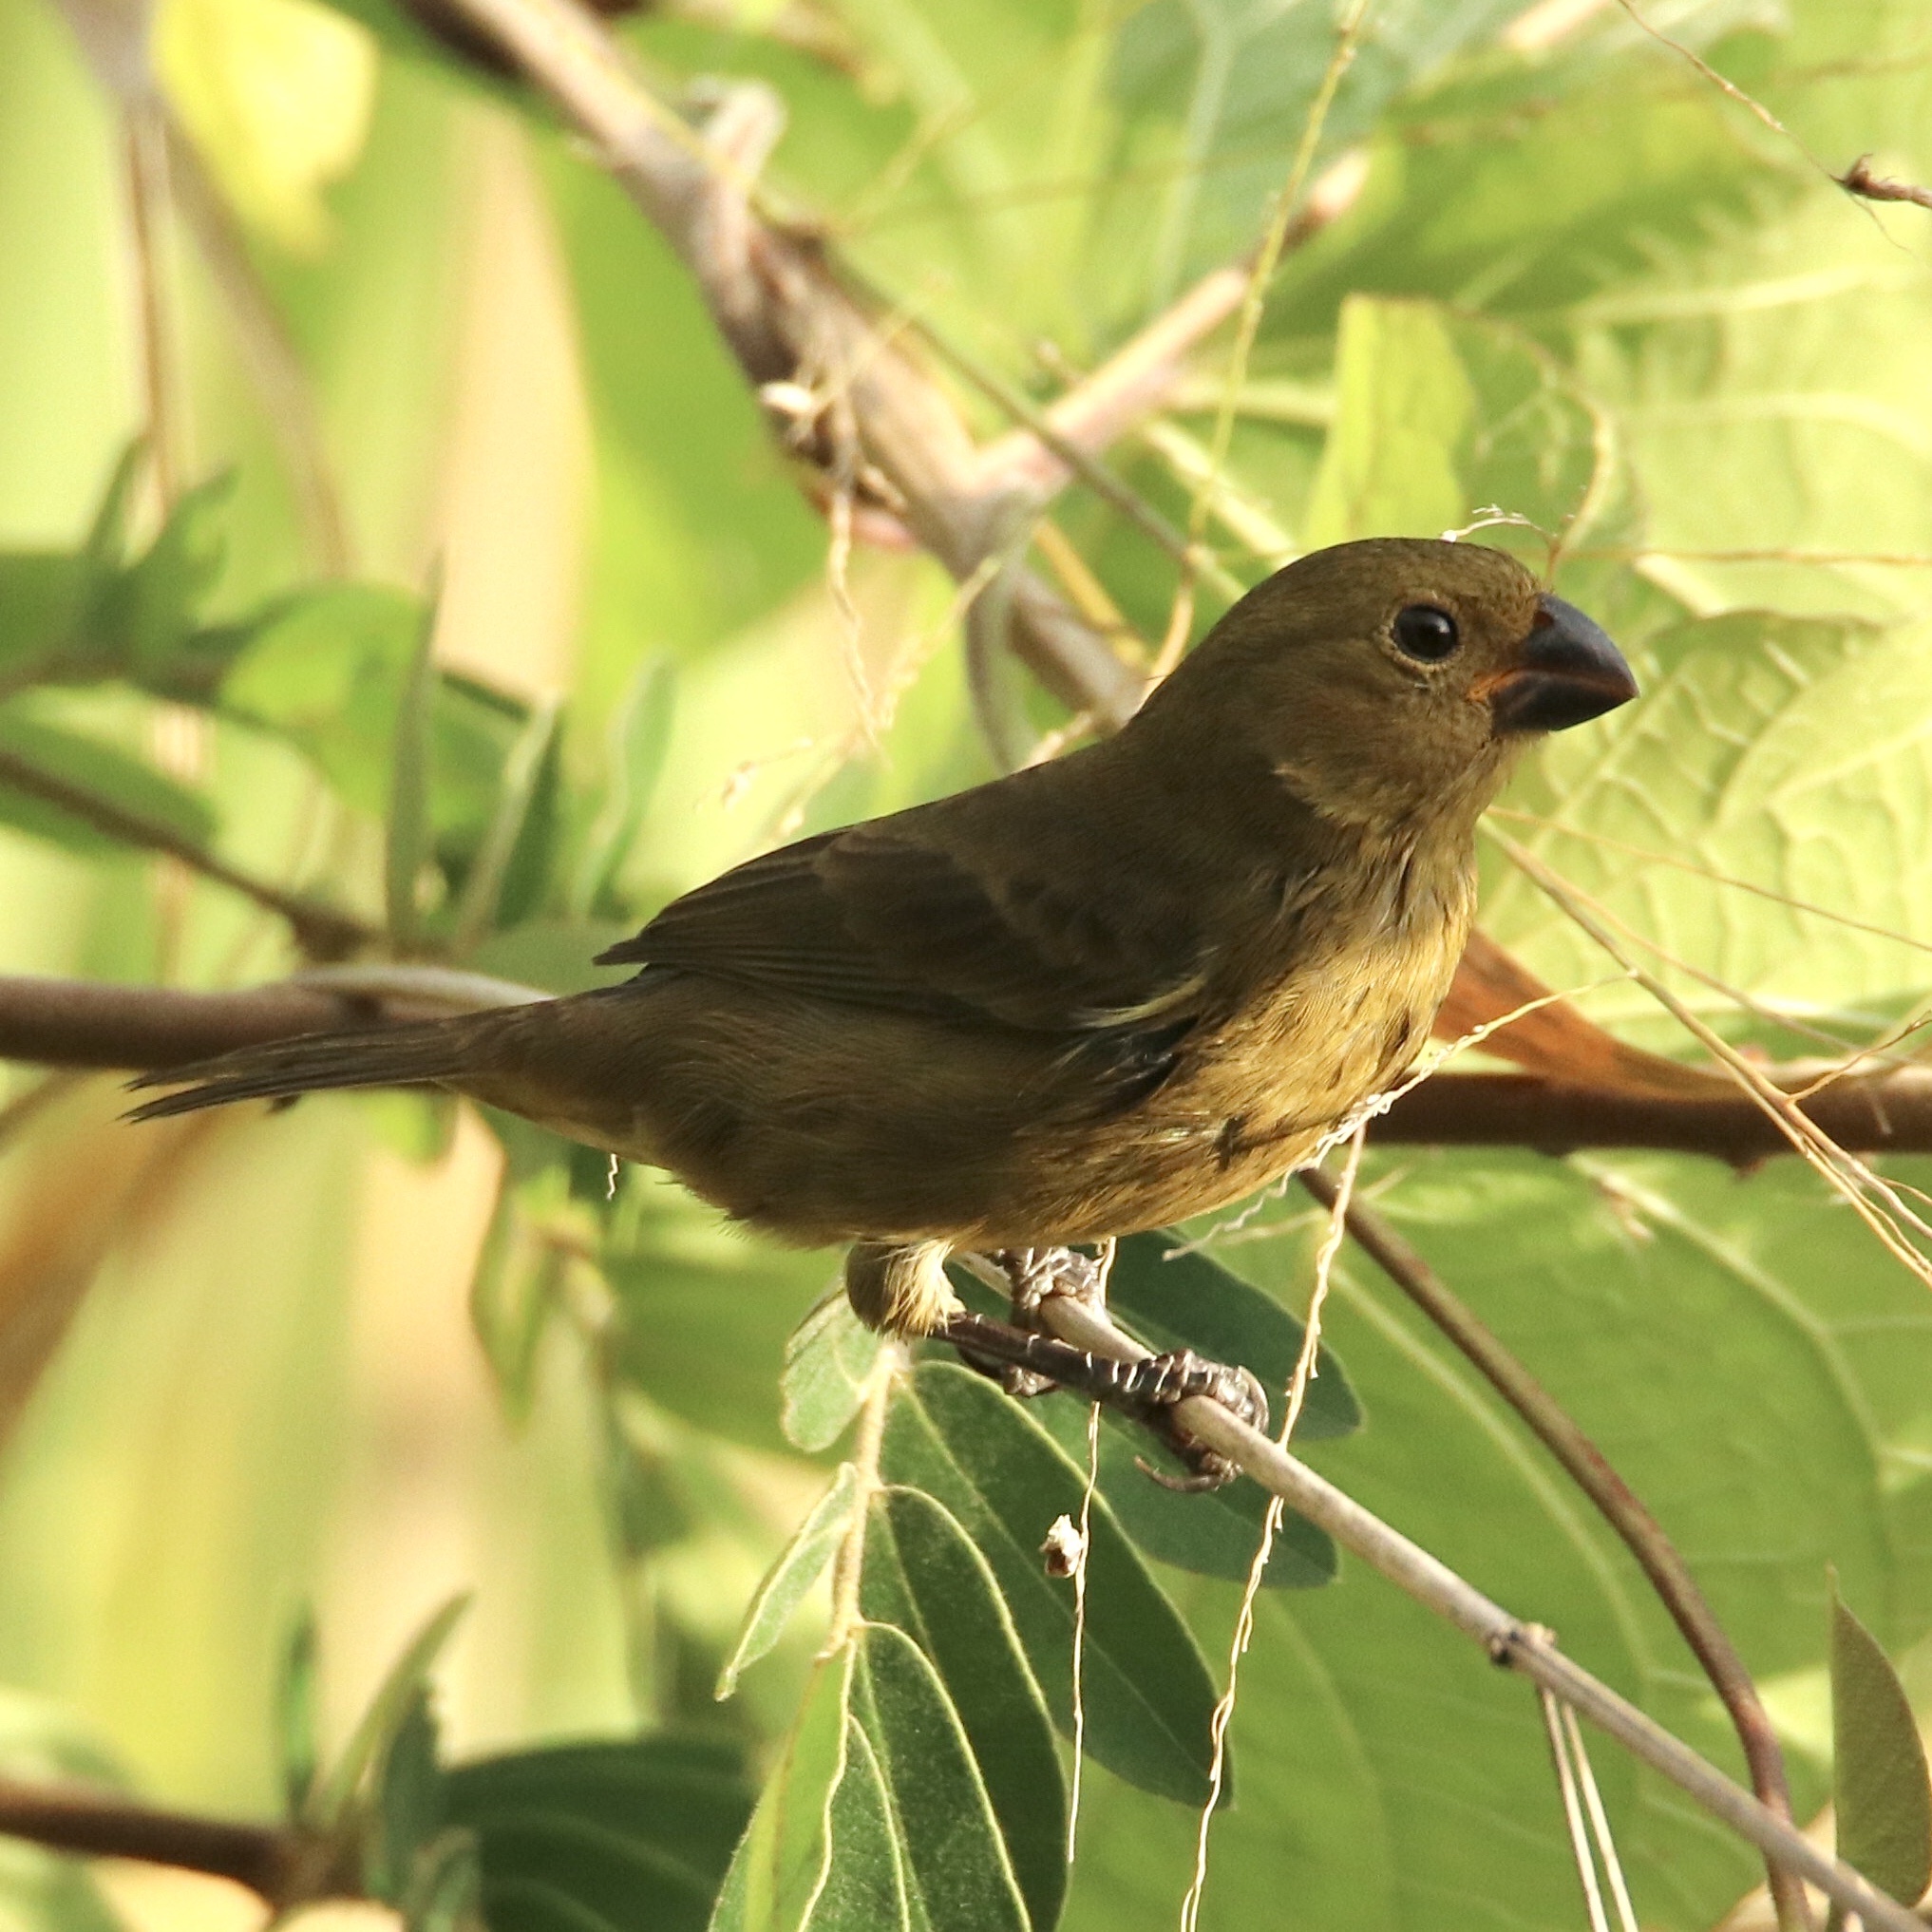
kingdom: Animalia
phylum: Chordata
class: Aves
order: Passeriformes
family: Thraupidae
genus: Sporophila
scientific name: Sporophila corvina
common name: Variable seedeater
